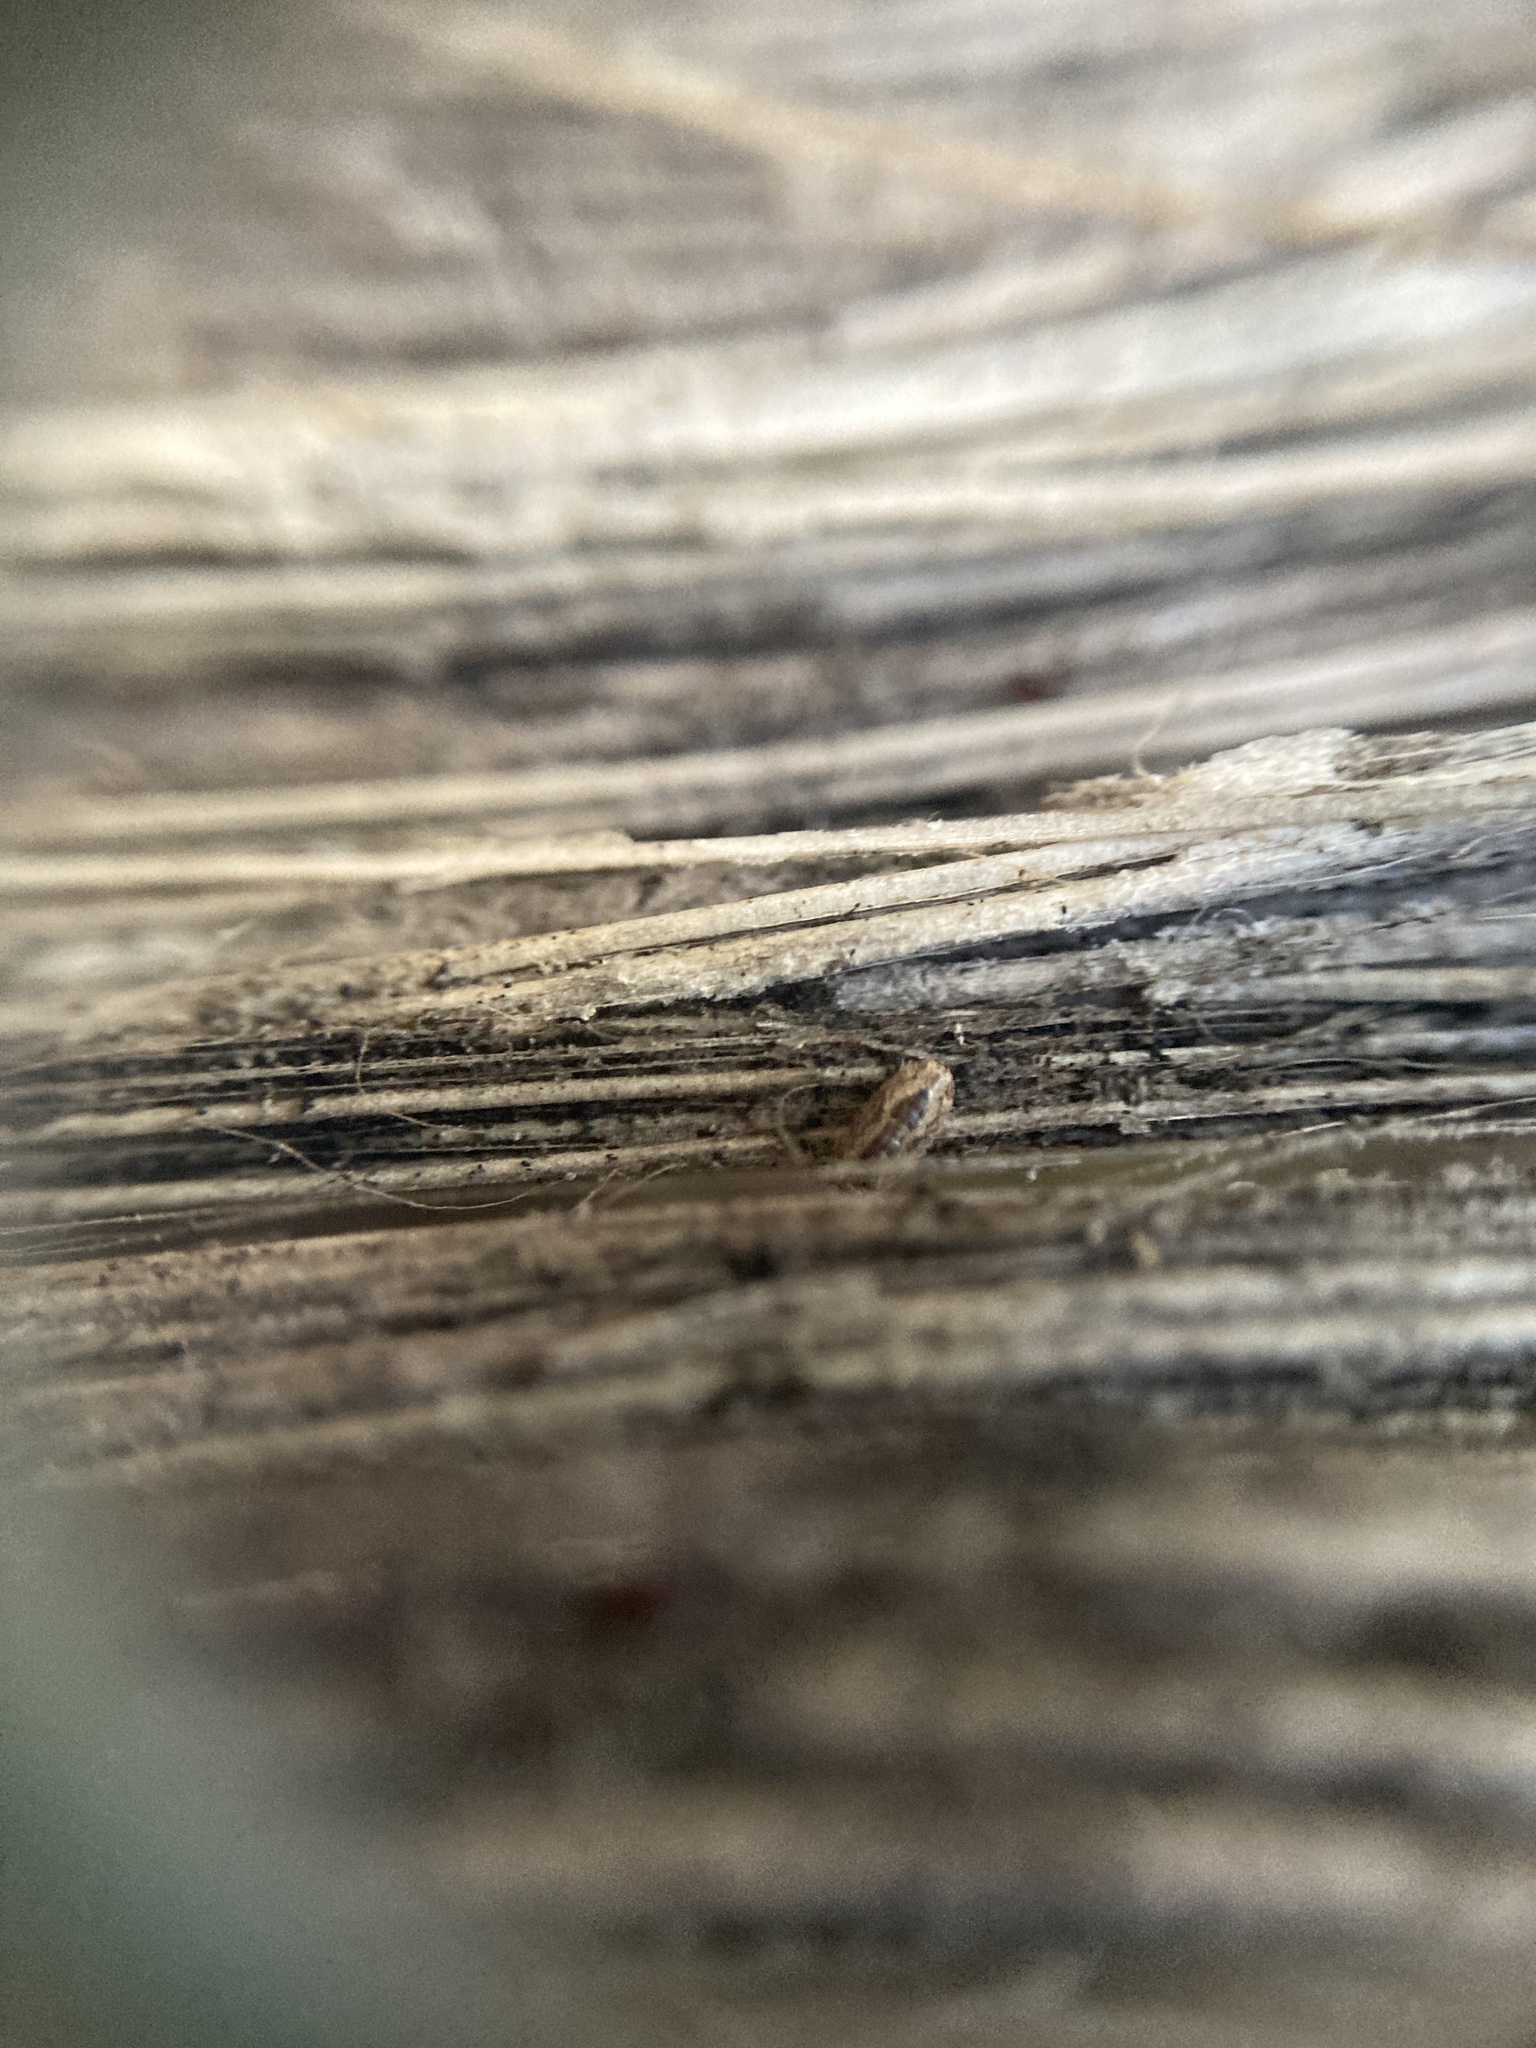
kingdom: Animalia
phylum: Arthropoda
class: Malacostraca
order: Isopoda
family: Armadillidae
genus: Cubaris
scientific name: Cubaris tarangensis
